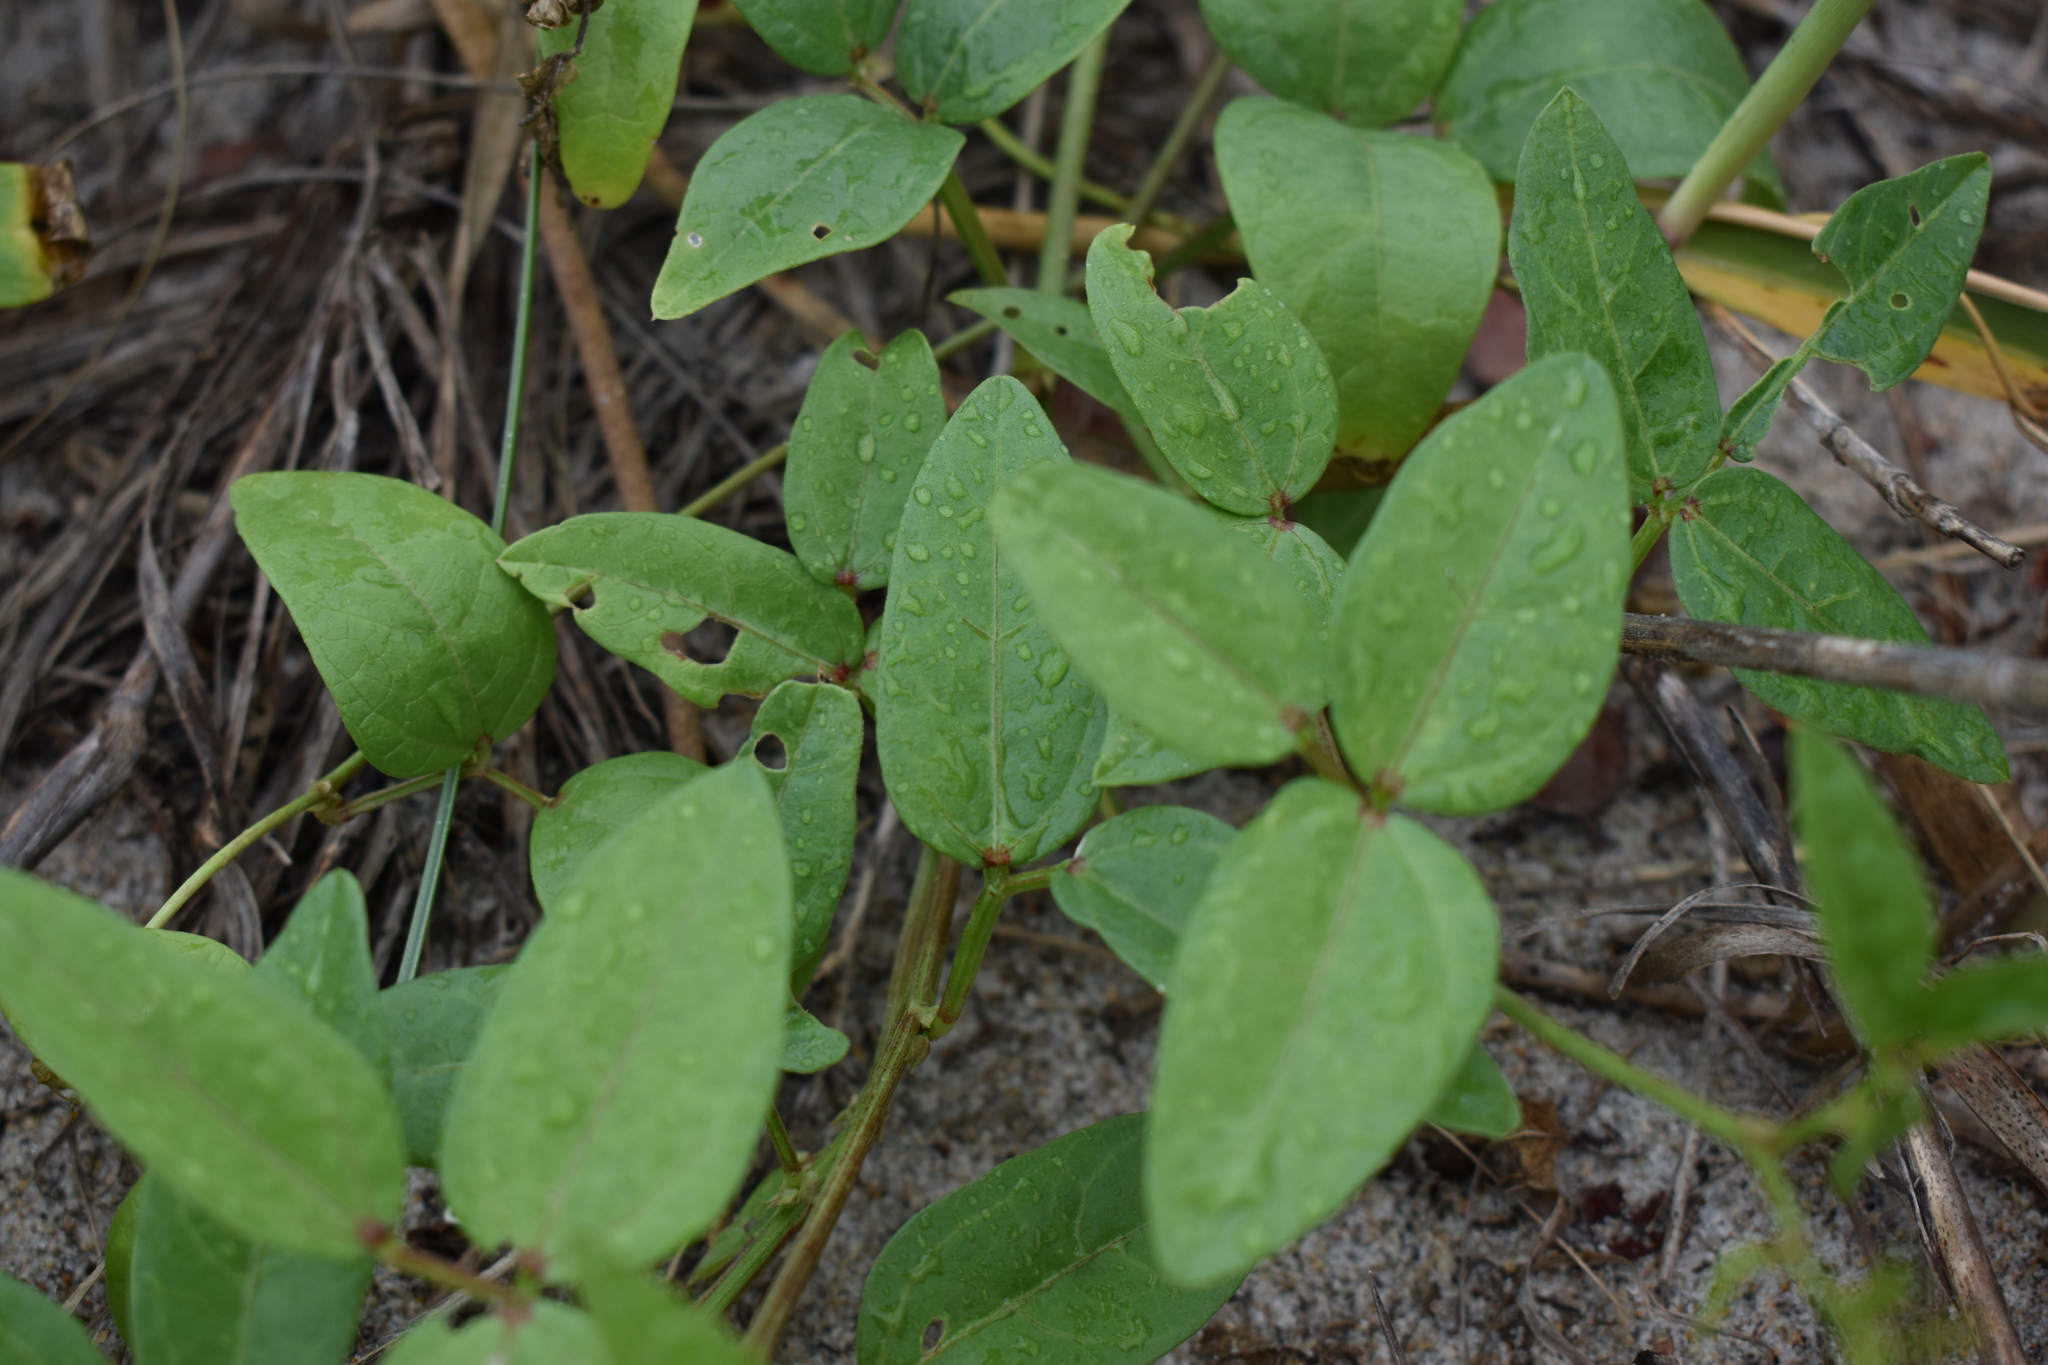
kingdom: Plantae
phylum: Tracheophyta
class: Magnoliopsida
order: Fabales
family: Fabaceae
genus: Vigna
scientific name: Vigna luteola
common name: Hairypod cowpea
